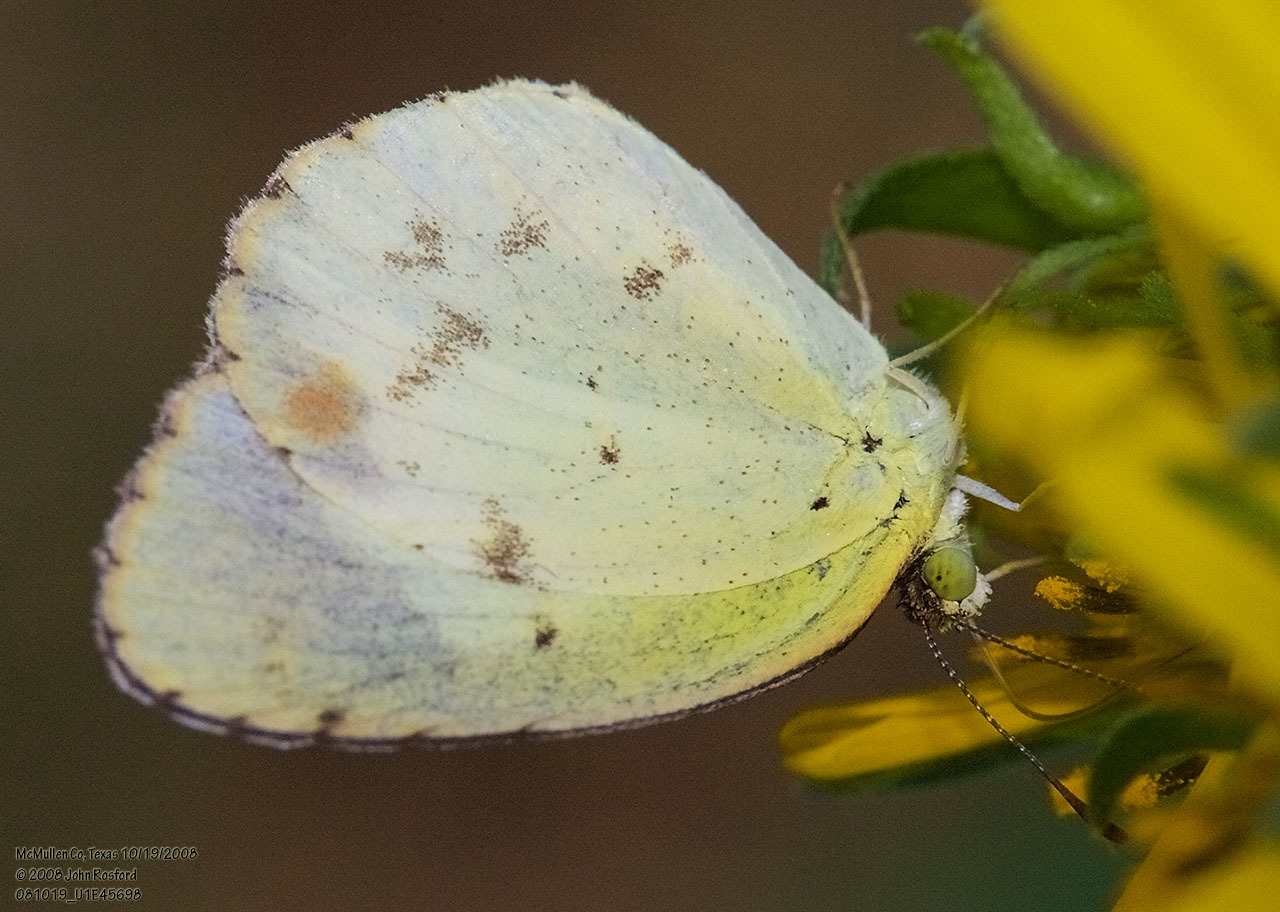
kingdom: Animalia
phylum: Arthropoda
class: Insecta
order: Lepidoptera
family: Pieridae
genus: Pyrisitia
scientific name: Pyrisitia lisa
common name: Little yellow
